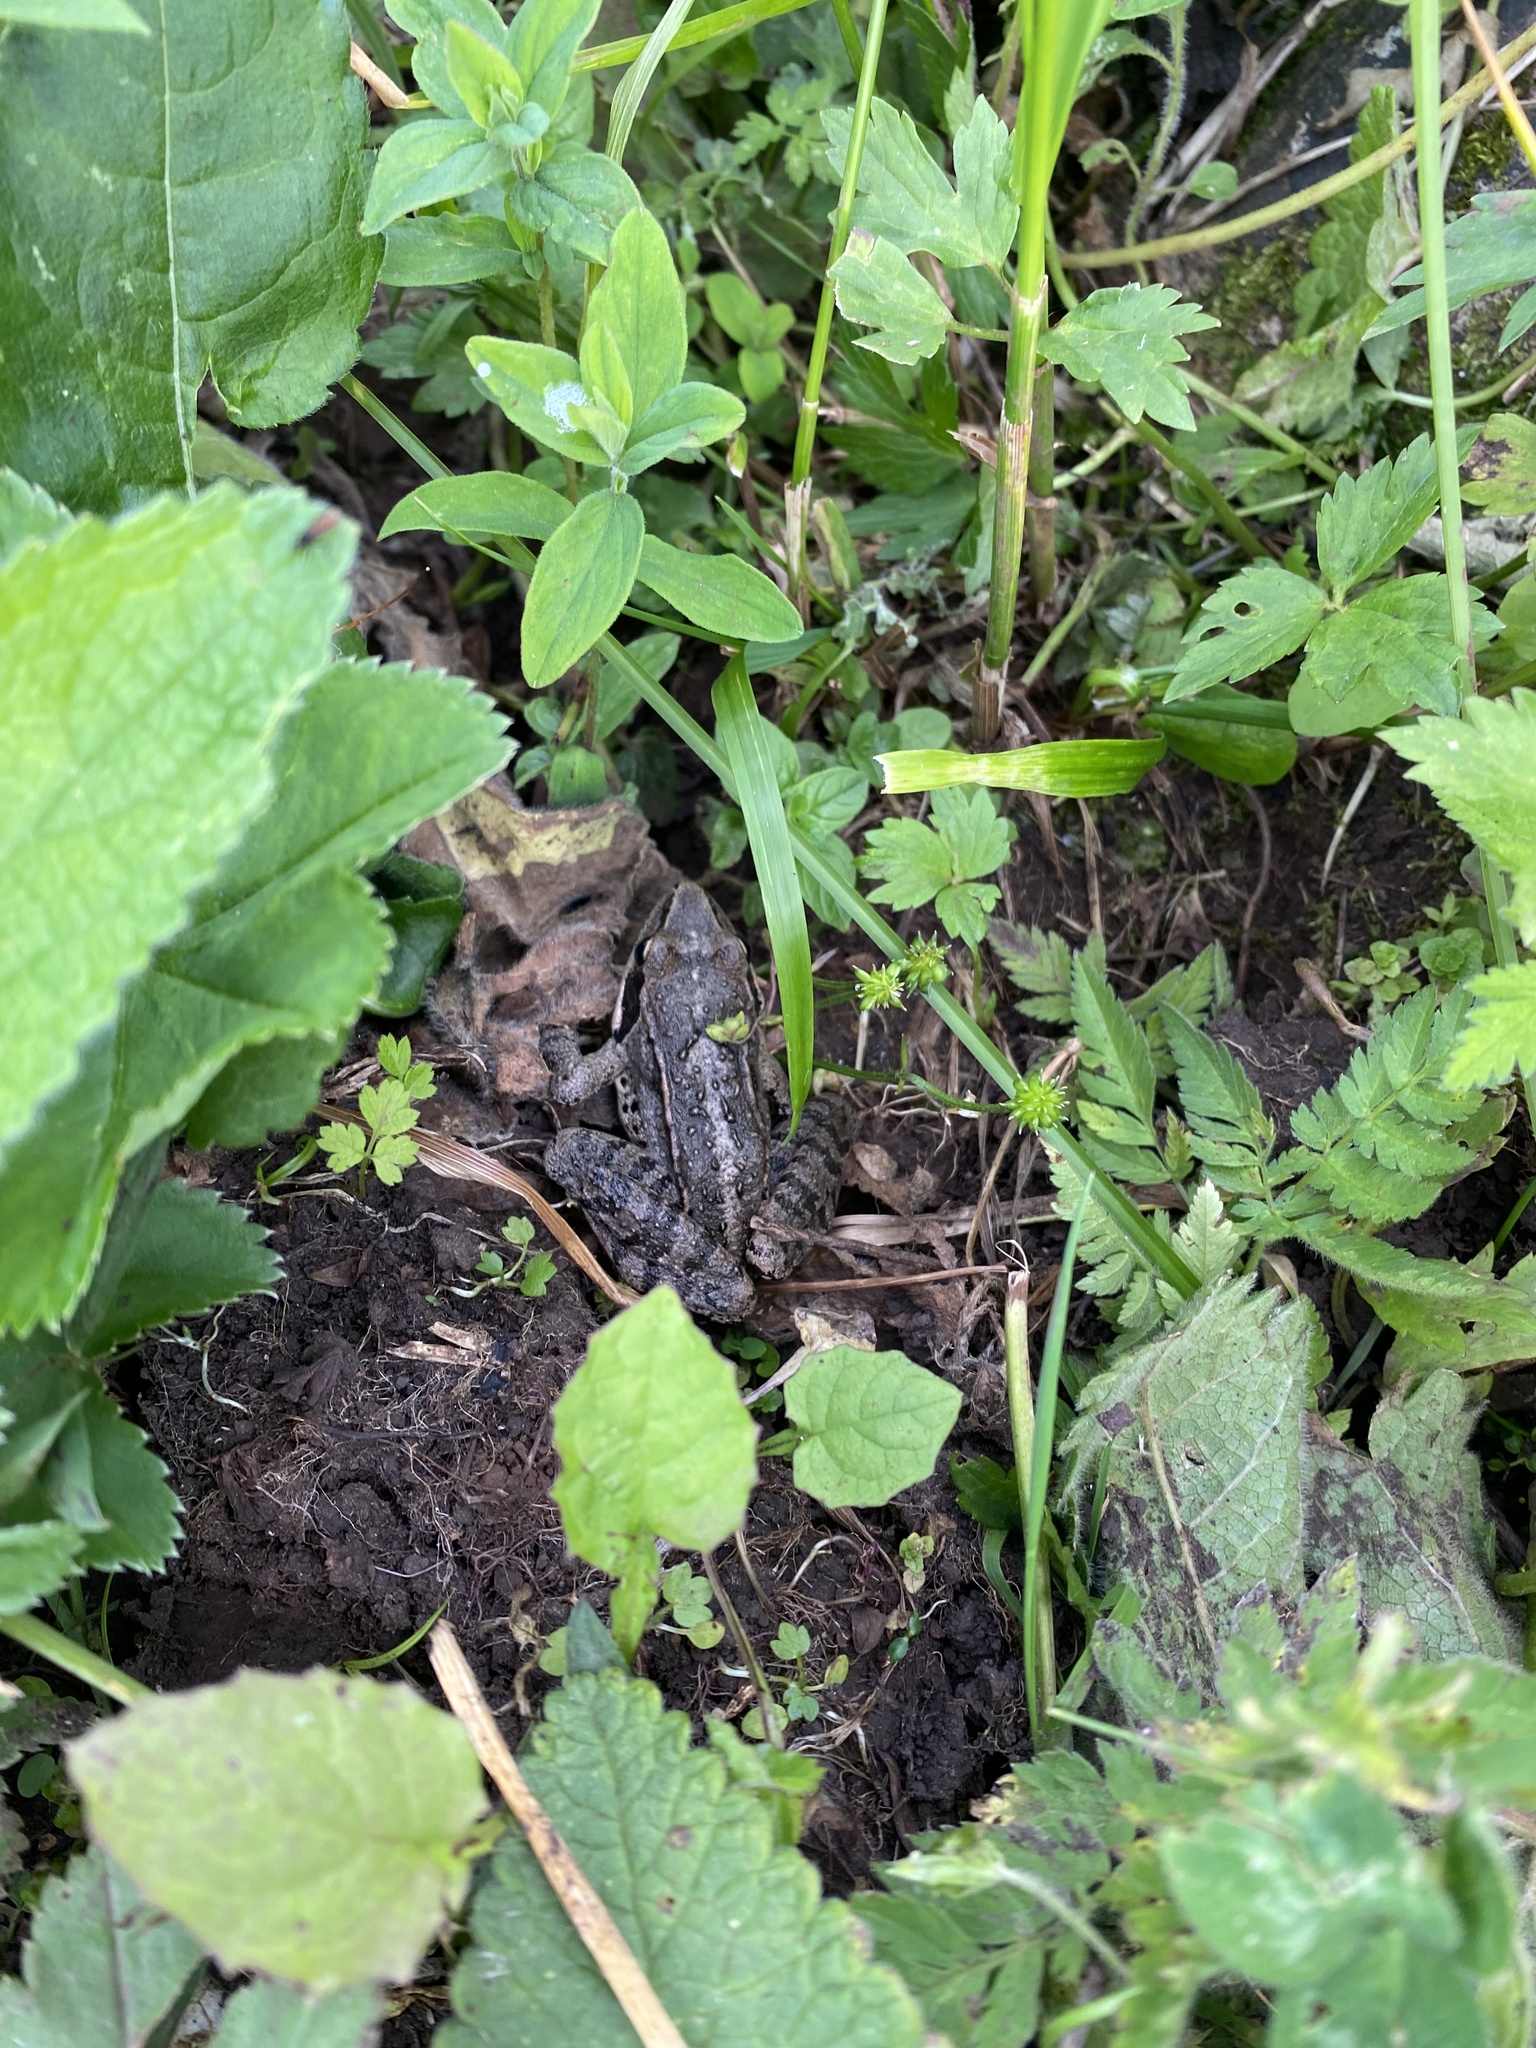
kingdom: Animalia
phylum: Chordata
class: Amphibia
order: Anura
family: Ranidae
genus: Rana
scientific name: Rana macrocnemis
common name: Banded frog
